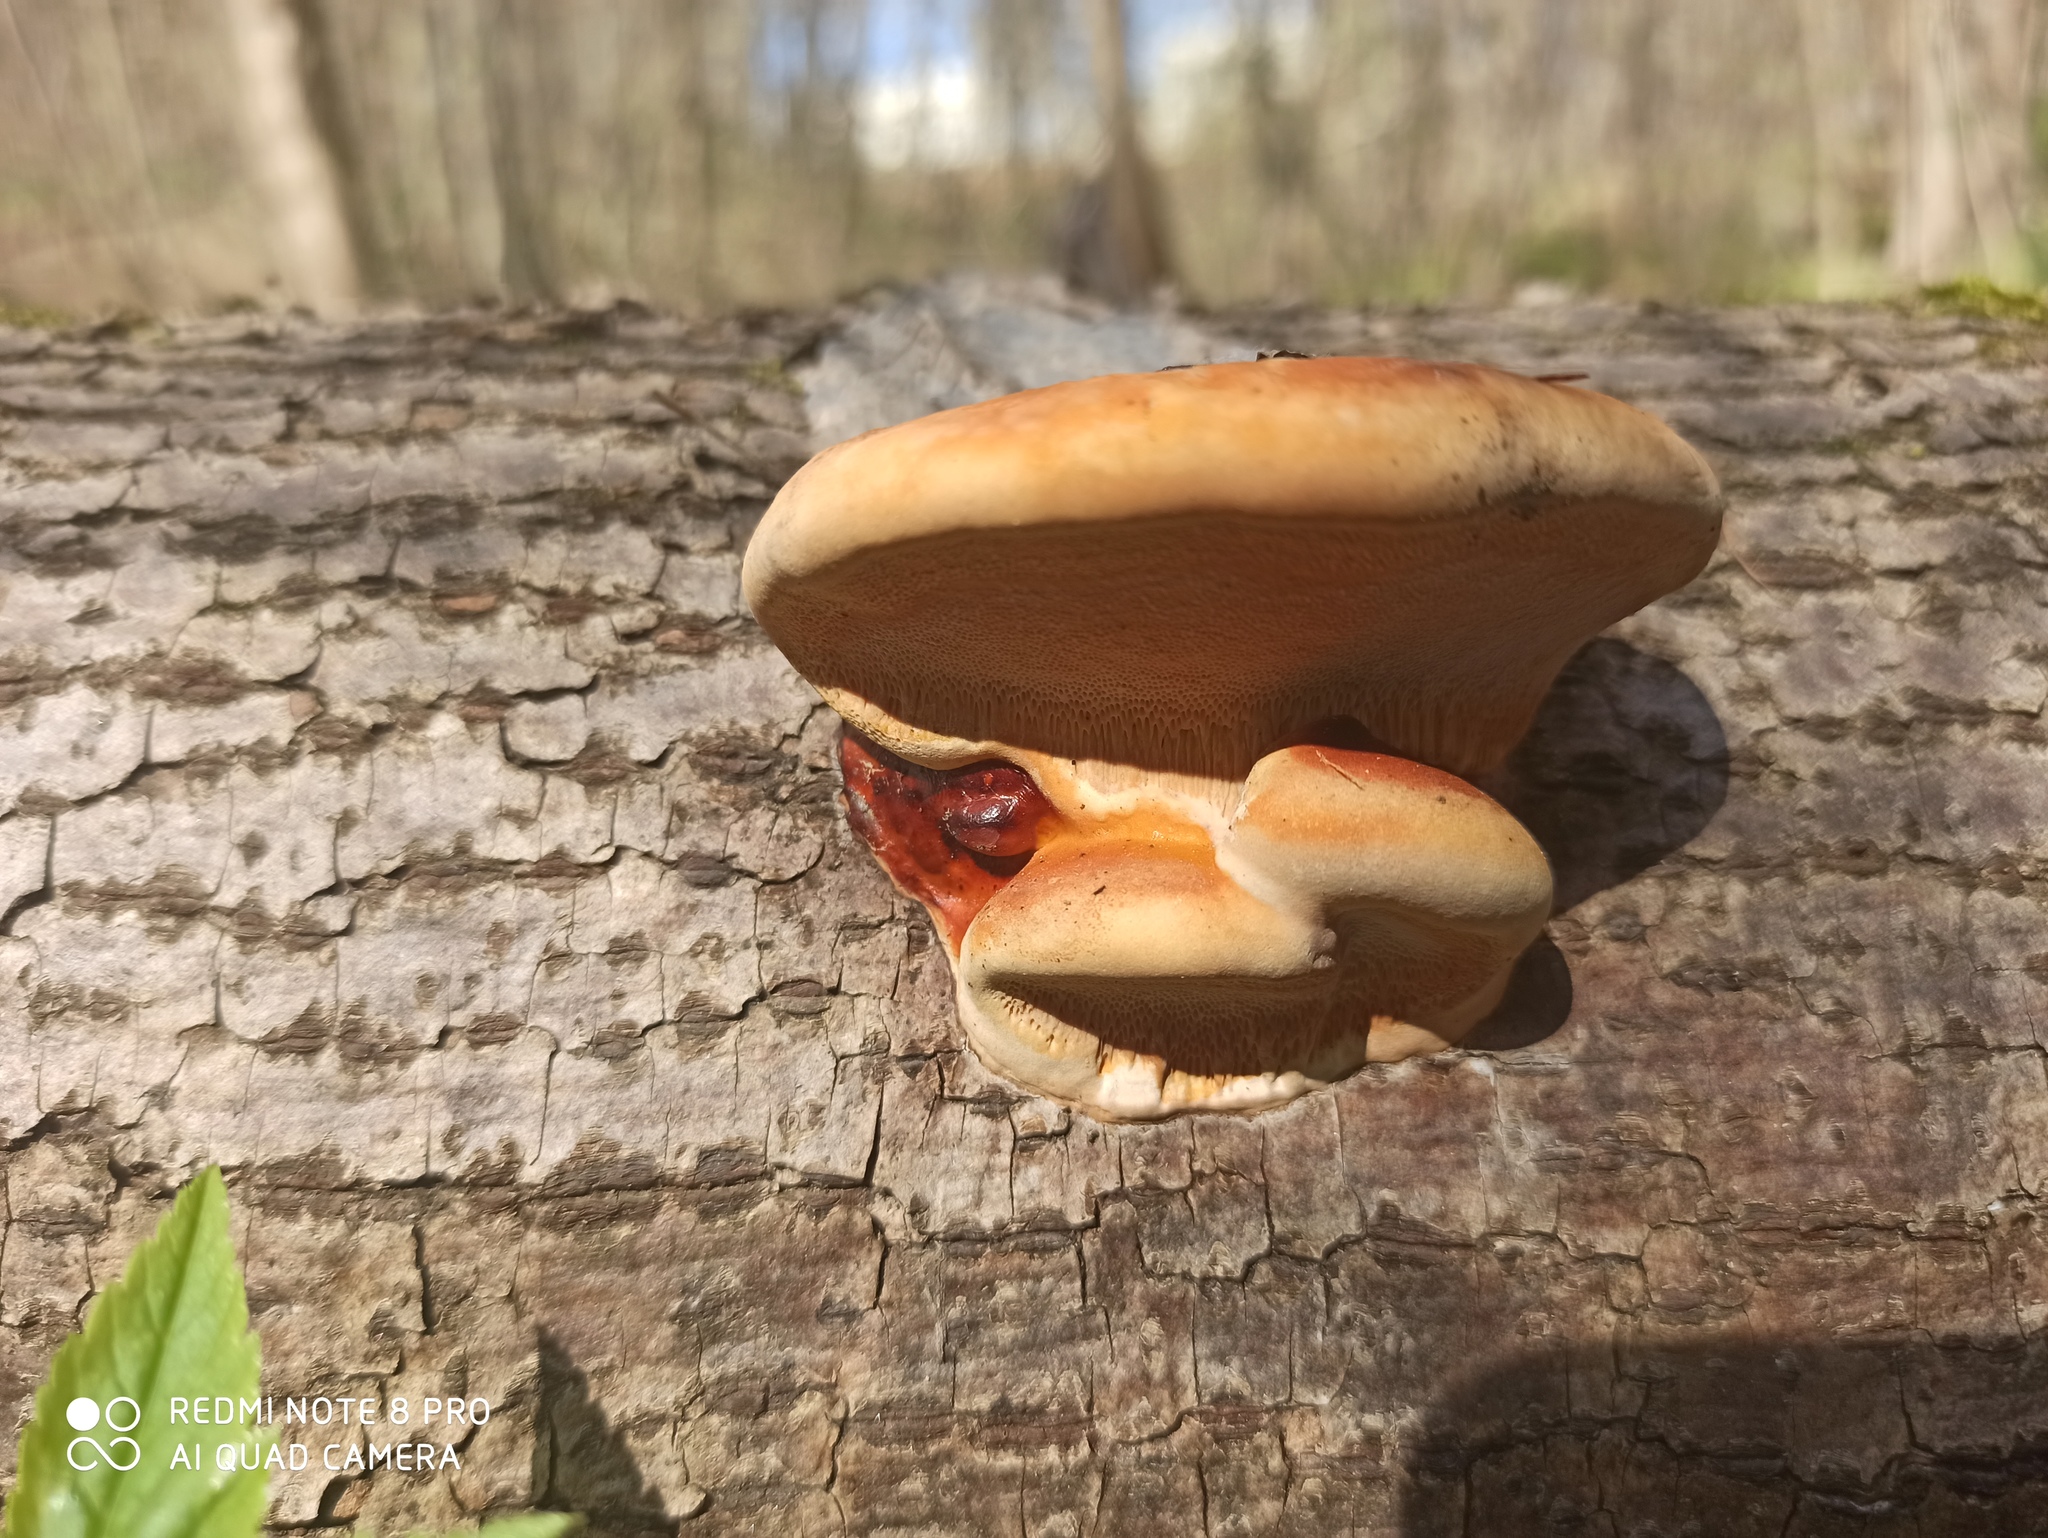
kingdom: Fungi
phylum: Basidiomycota
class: Agaricomycetes
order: Polyporales
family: Fomitopsidaceae
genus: Fomitopsis
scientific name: Fomitopsis pinicola
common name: Red-belted bracket
